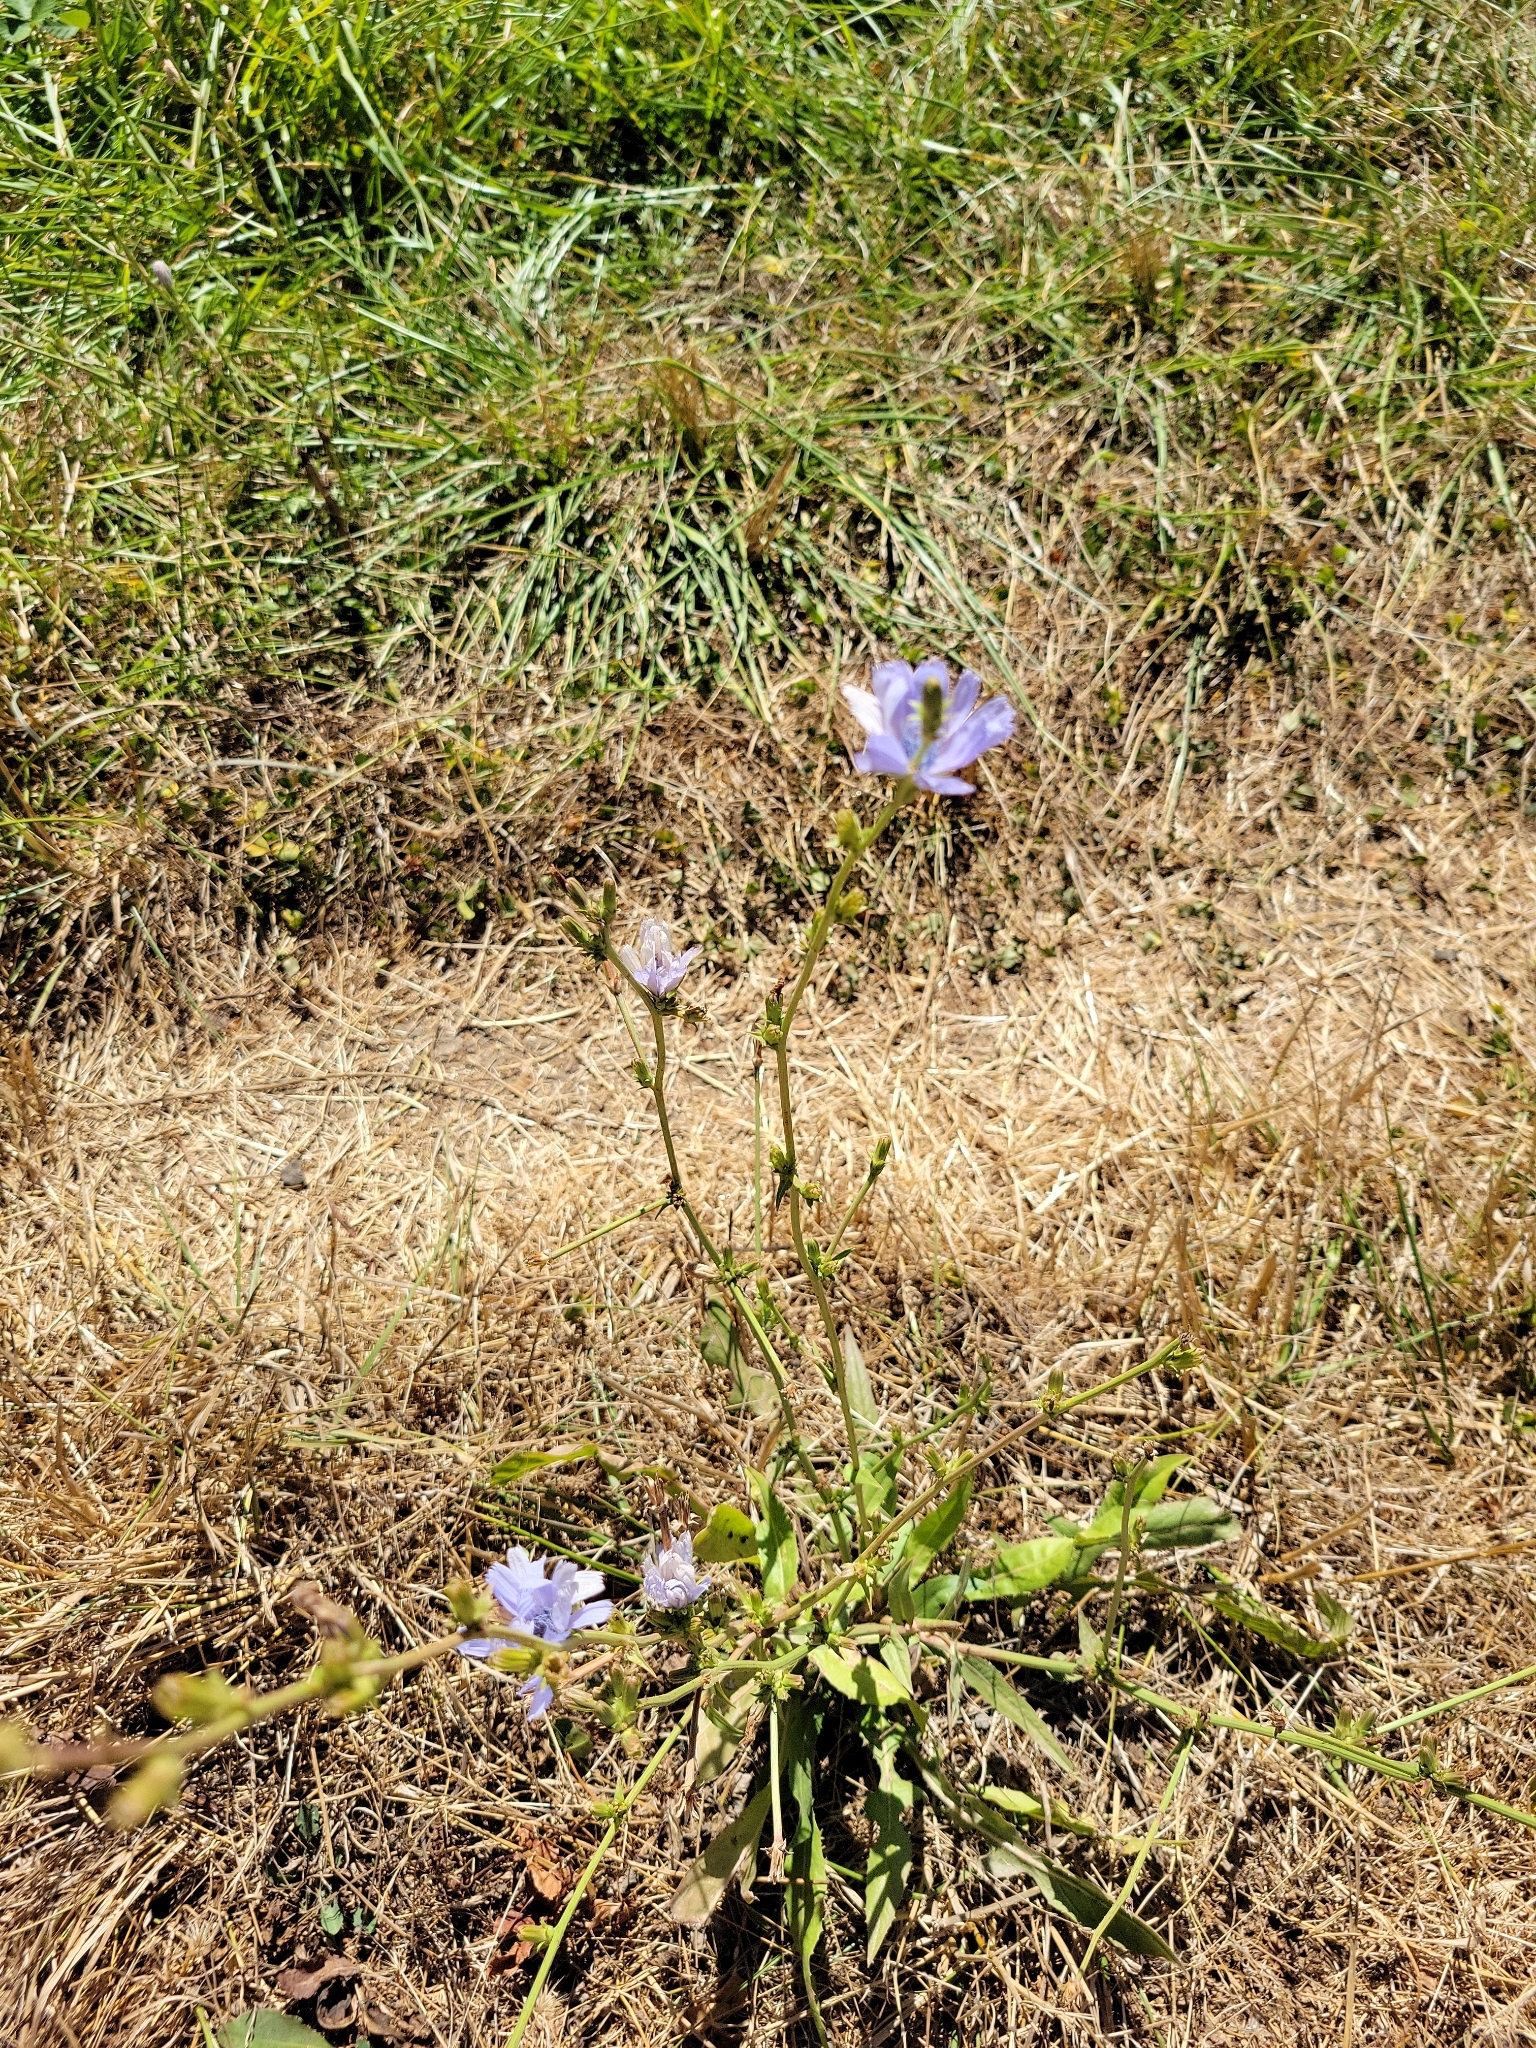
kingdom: Plantae
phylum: Tracheophyta
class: Magnoliopsida
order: Asterales
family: Asteraceae
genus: Cichorium
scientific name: Cichorium intybus
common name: Chicory
